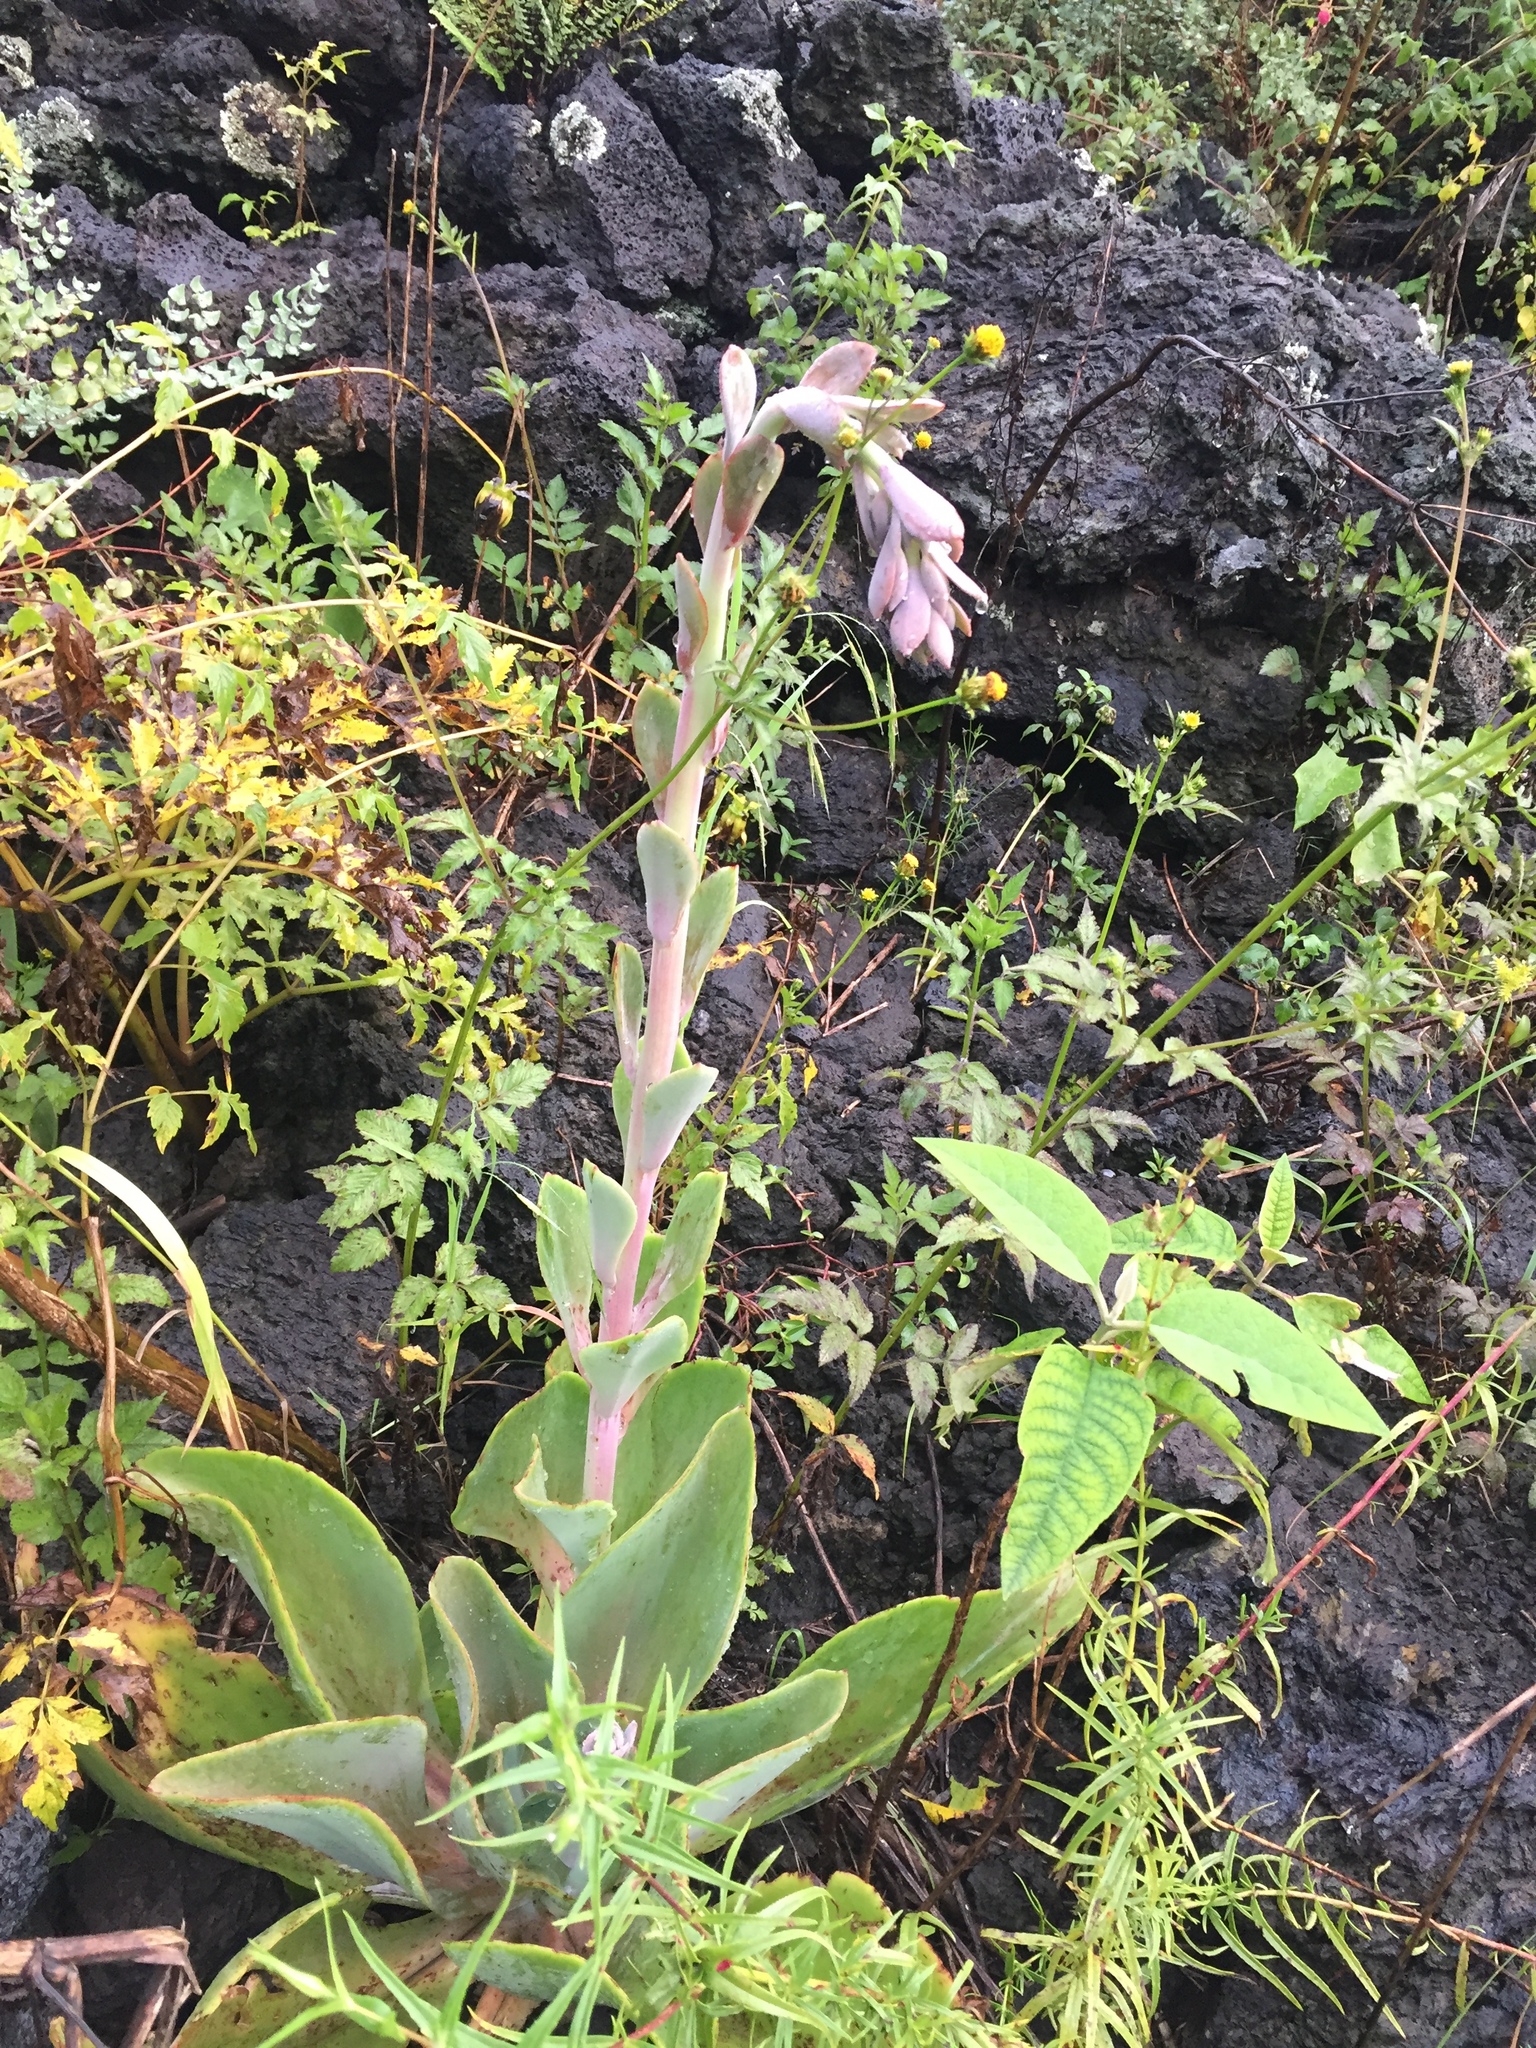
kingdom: Plantae
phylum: Tracheophyta
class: Magnoliopsida
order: Saxifragales
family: Crassulaceae
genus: Echeveria
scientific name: Echeveria gibbiflora
